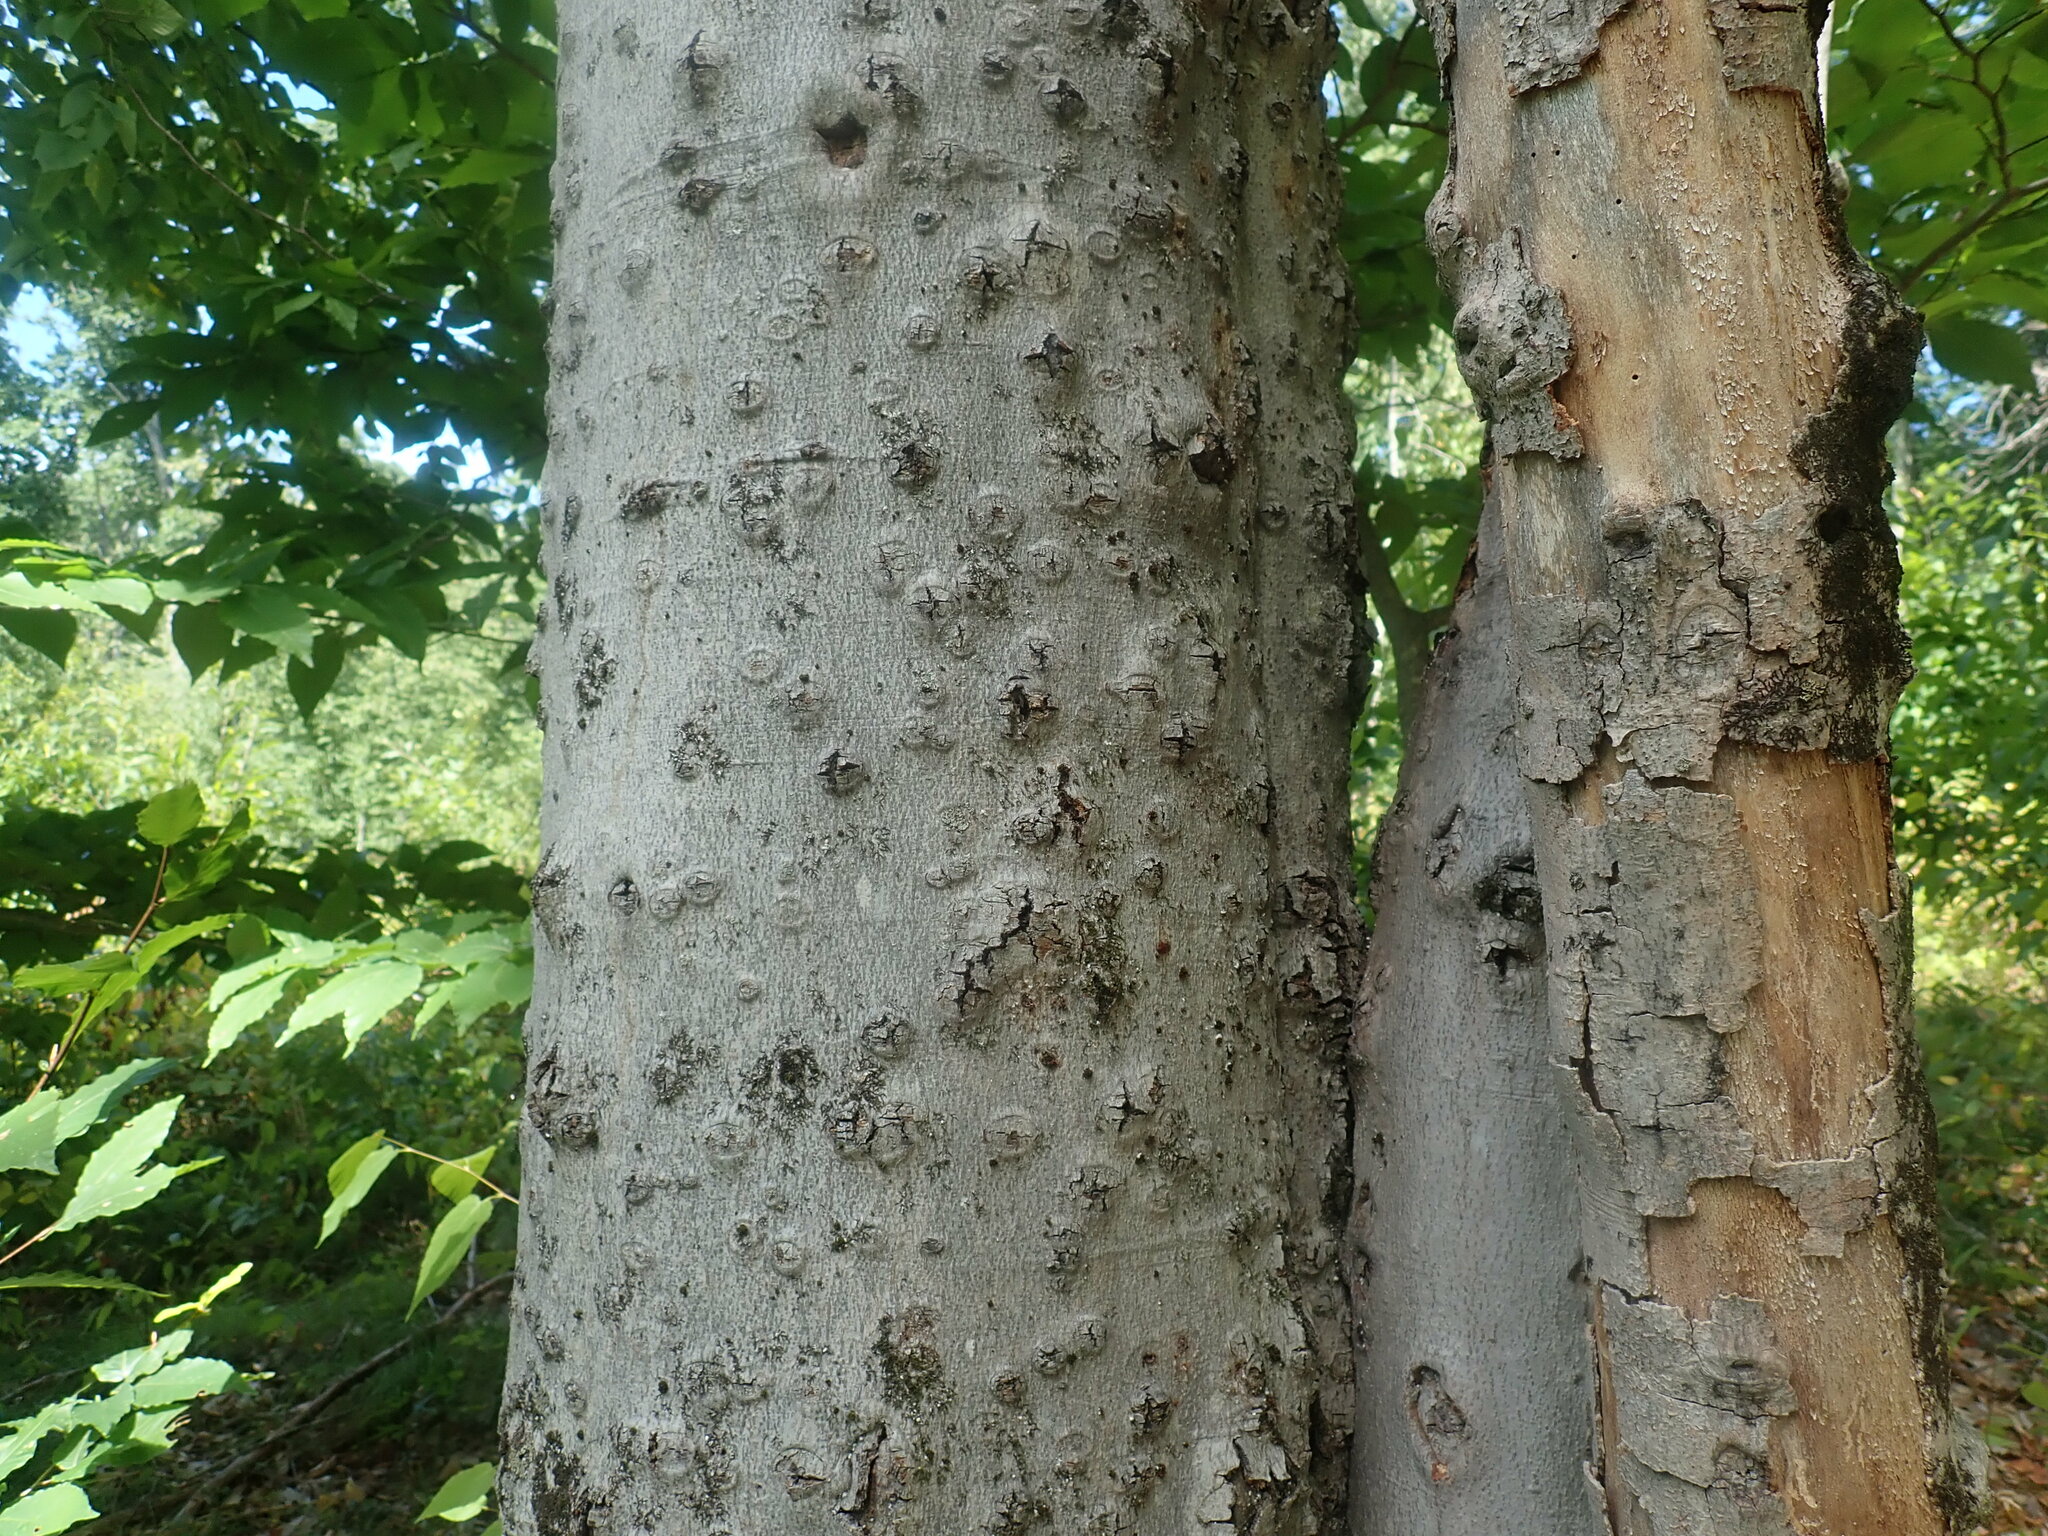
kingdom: Fungi
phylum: Ascomycota
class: Sordariomycetes
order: Hypocreales
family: Nectriaceae
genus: Neonectria
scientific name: Neonectria faginata
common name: Beech bark canker
